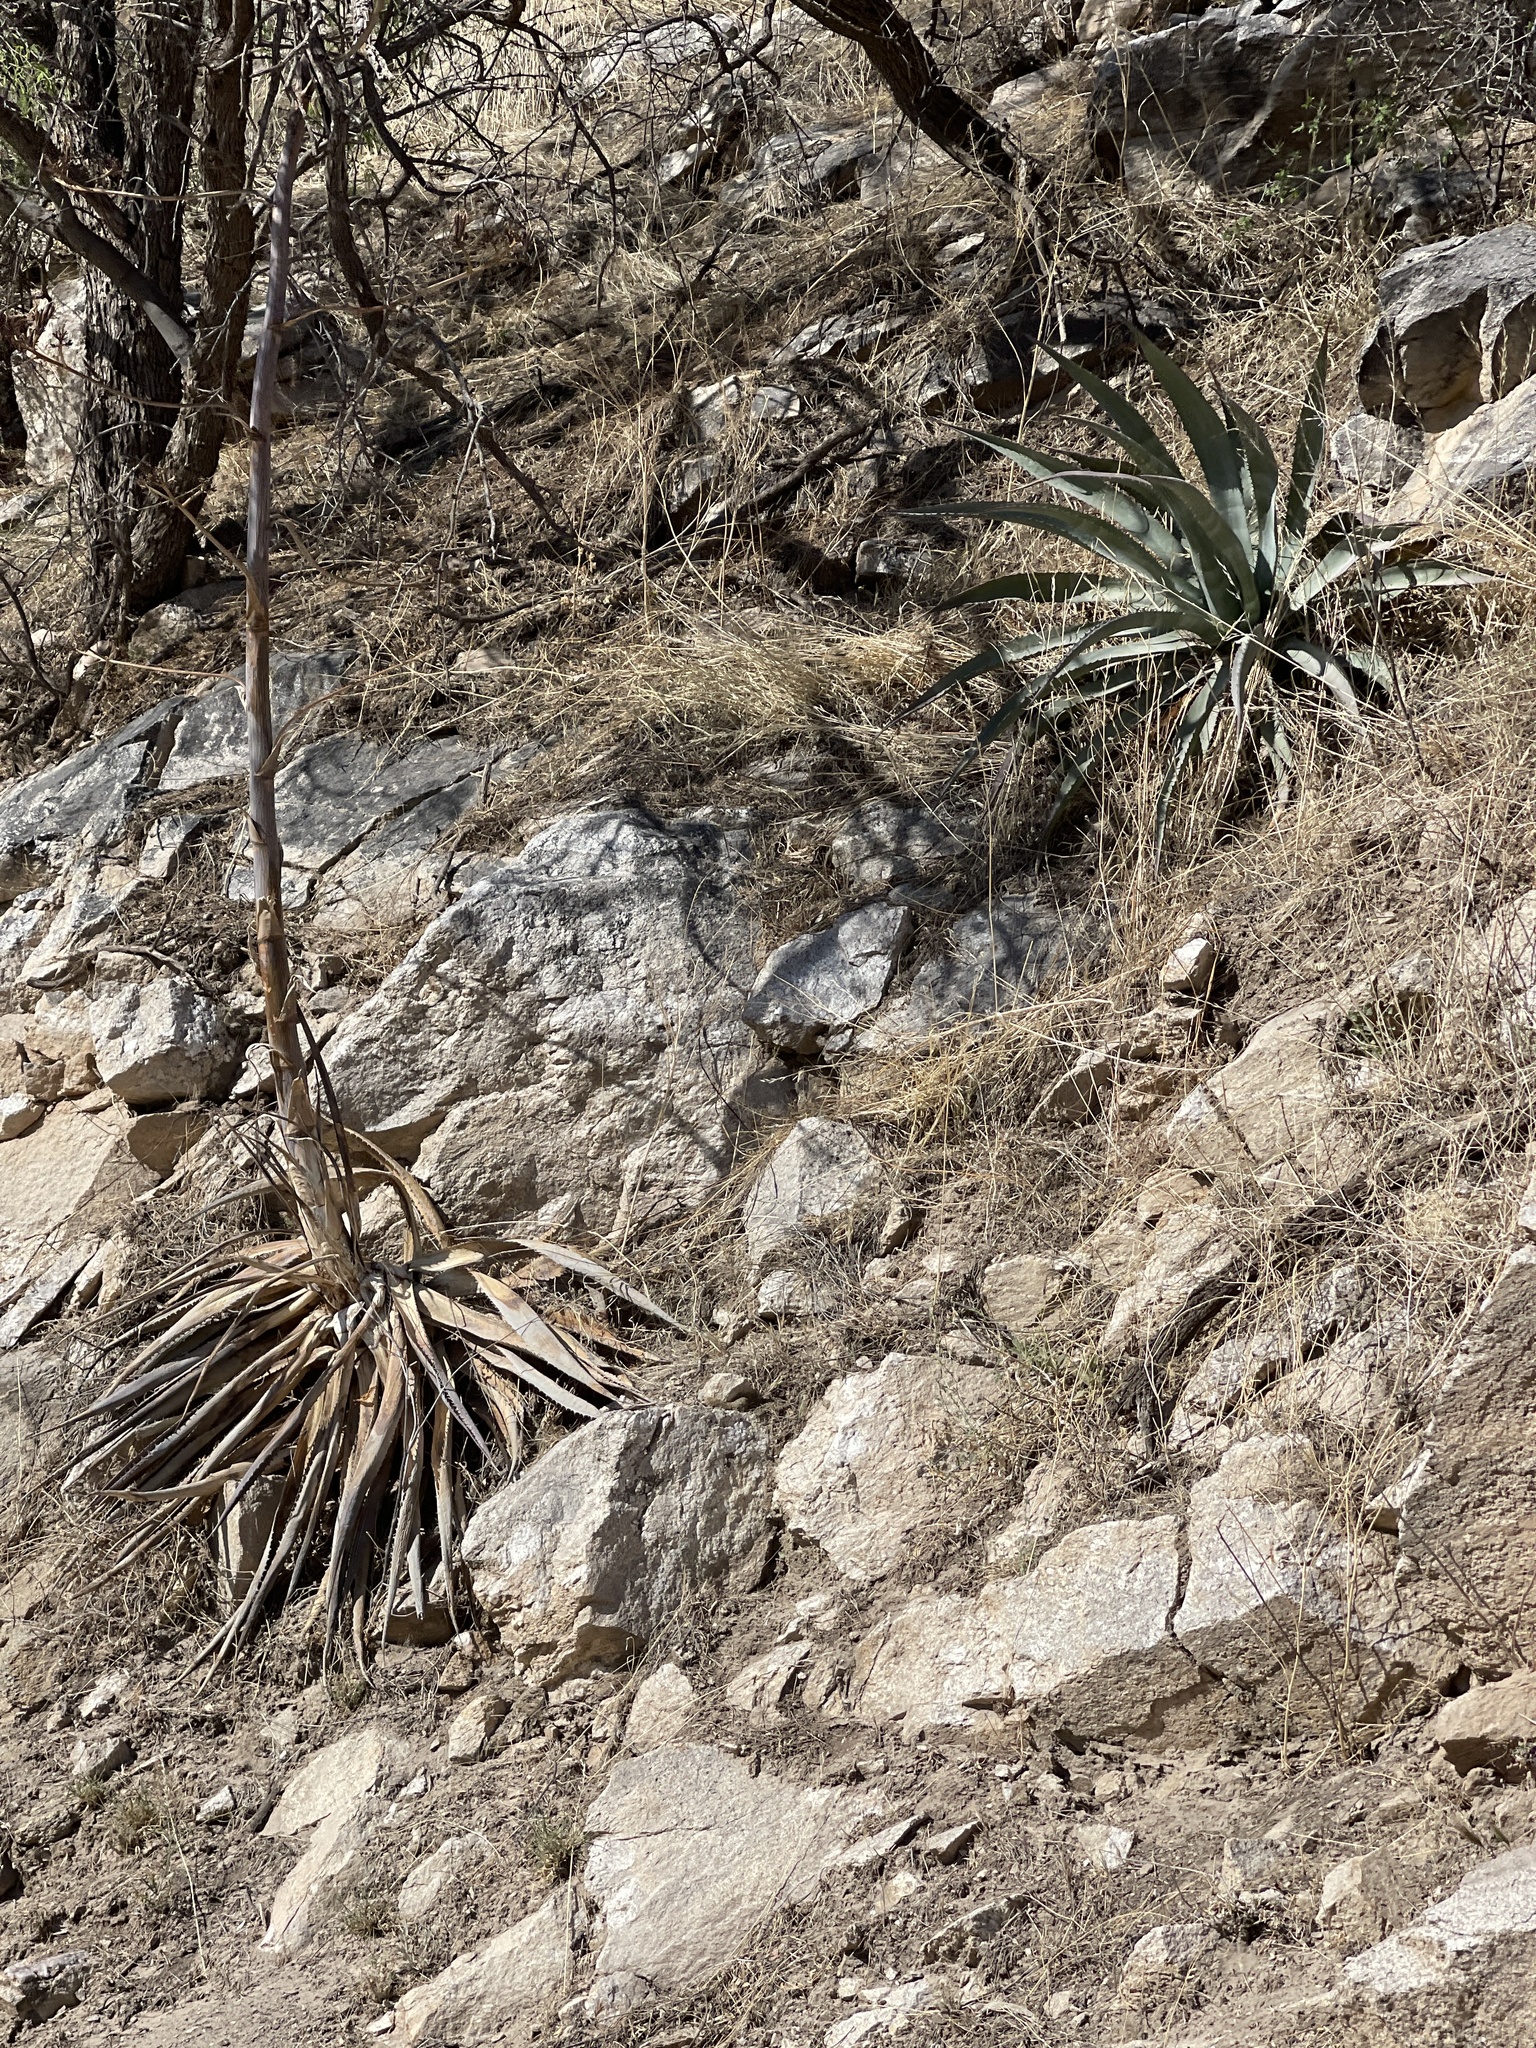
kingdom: Plantae
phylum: Tracheophyta
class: Liliopsida
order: Asparagales
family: Asparagaceae
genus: Agave
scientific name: Agave palmeri
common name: Palmer agave
